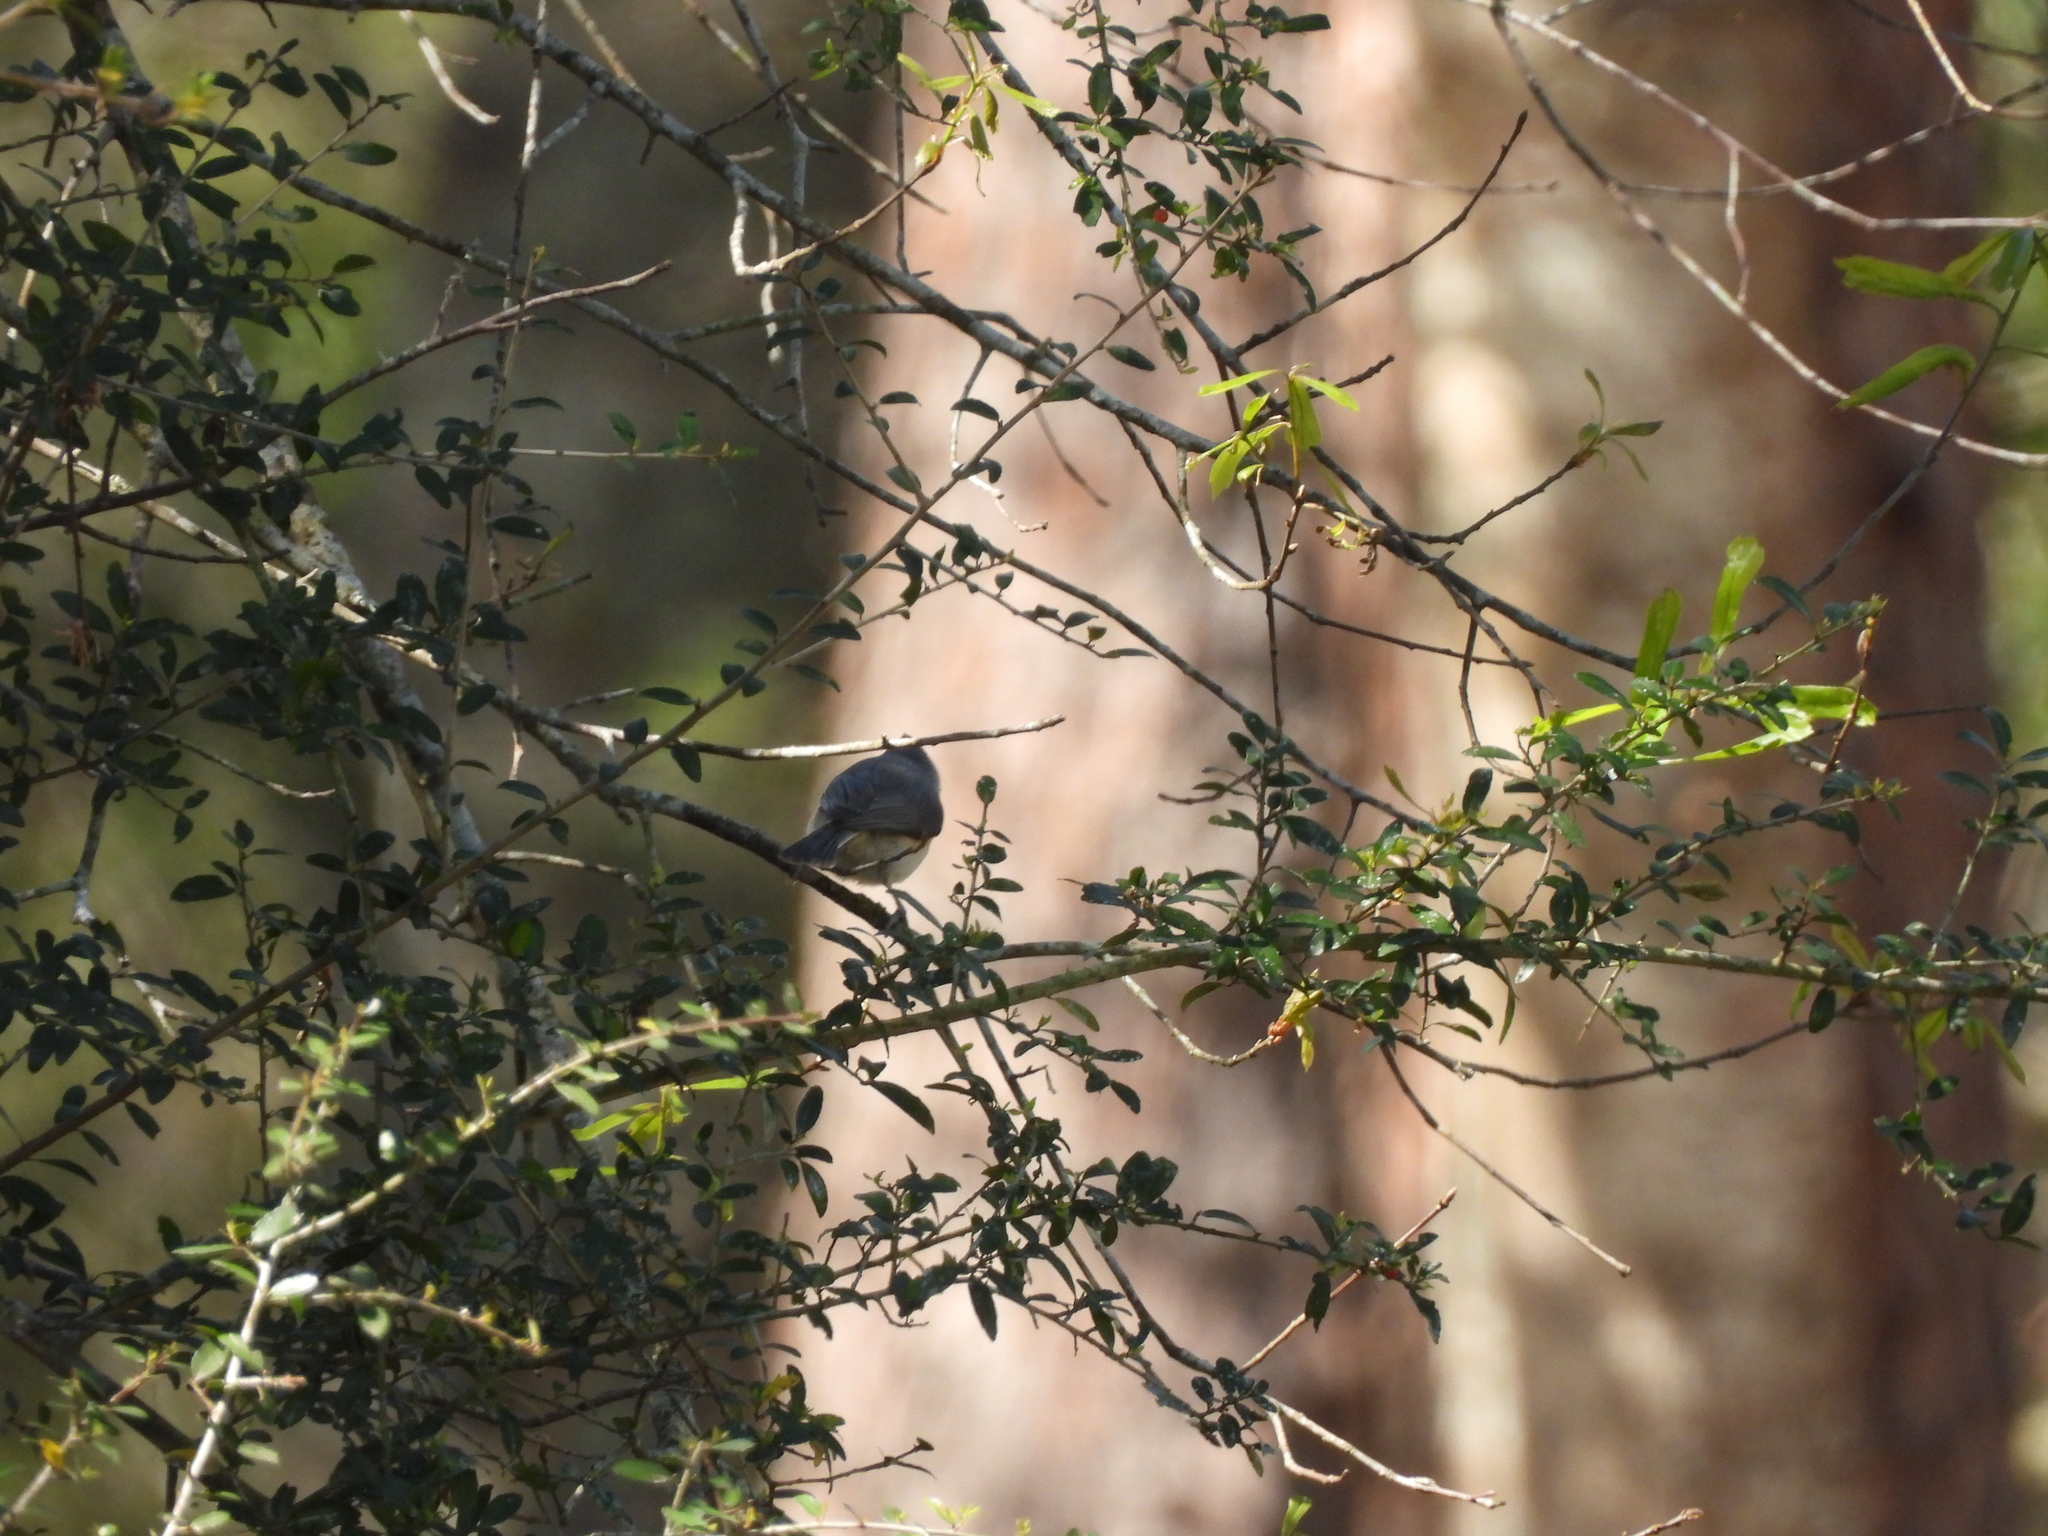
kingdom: Animalia
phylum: Chordata
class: Aves
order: Passeriformes
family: Paridae
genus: Baeolophus
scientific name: Baeolophus bicolor
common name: Tufted titmouse
